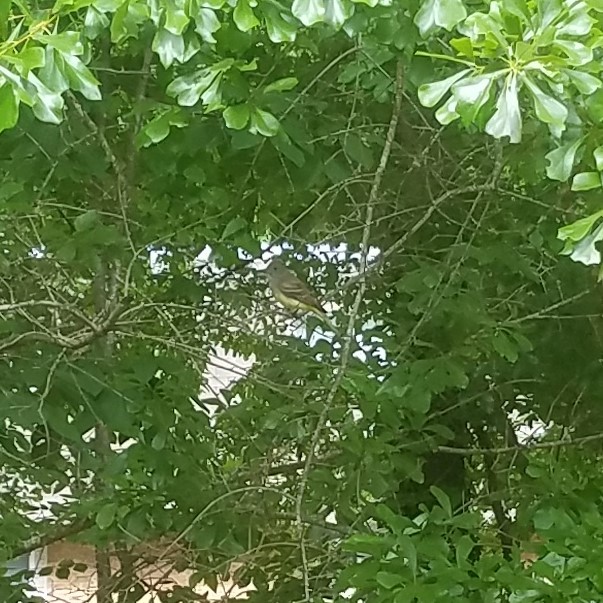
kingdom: Animalia
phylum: Chordata
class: Aves
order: Passeriformes
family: Tyrannidae
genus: Myiarchus
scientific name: Myiarchus crinitus
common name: Great crested flycatcher
